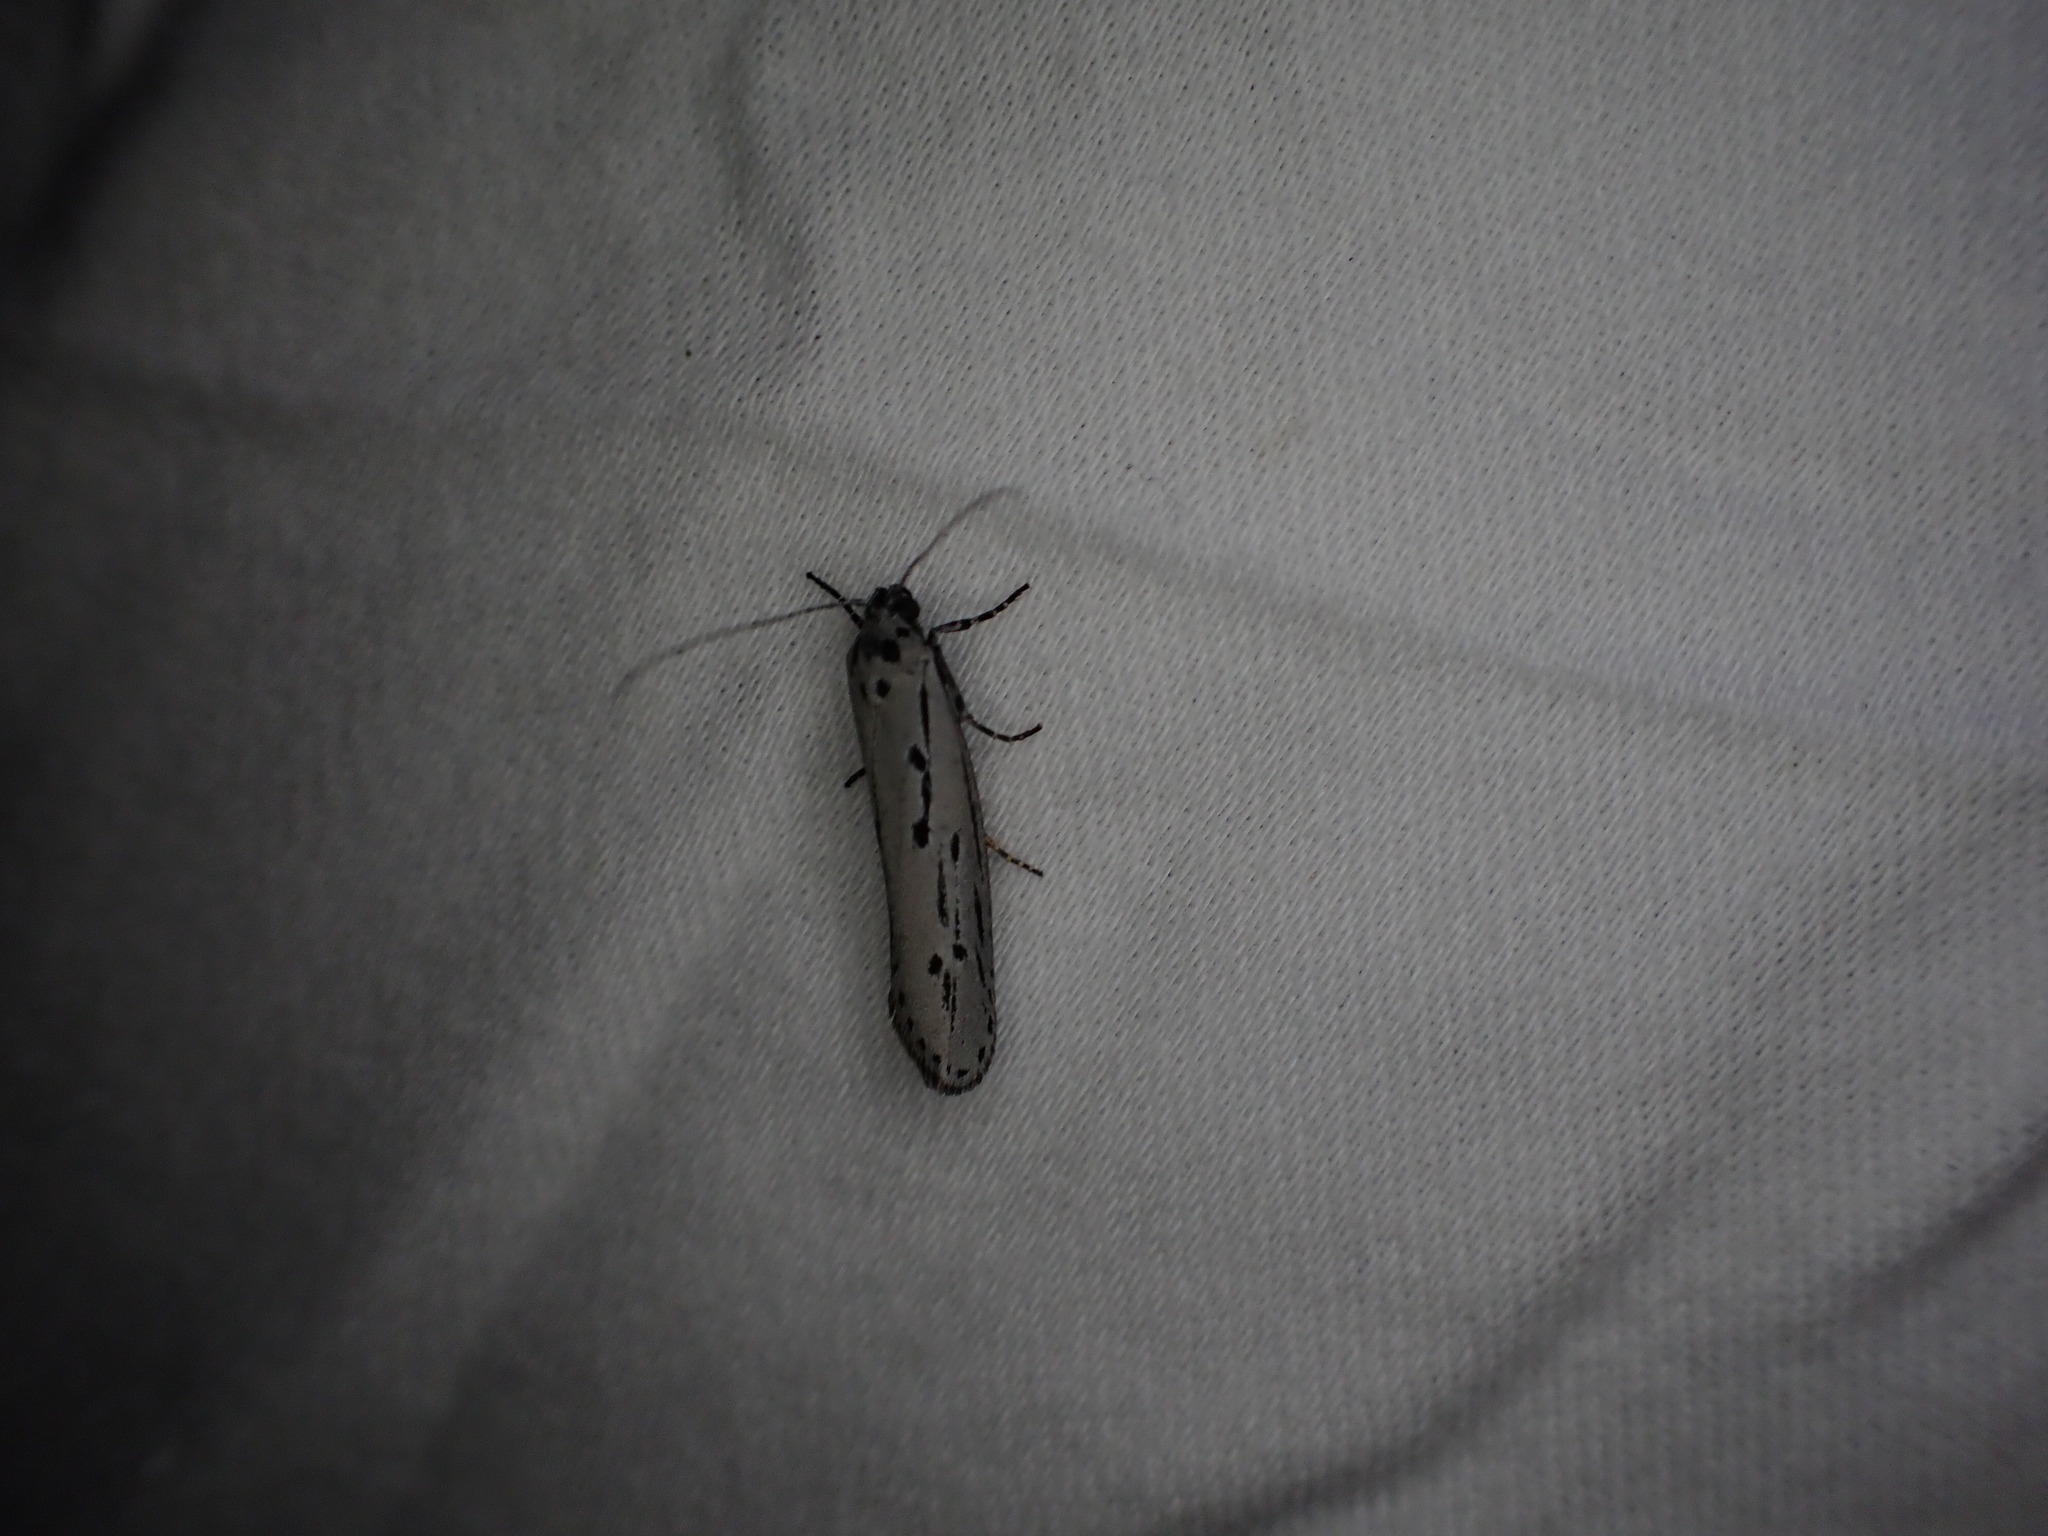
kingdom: Animalia
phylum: Arthropoda
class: Insecta
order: Lepidoptera
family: Ethmiidae
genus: Ethmia
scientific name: Ethmia monticola
